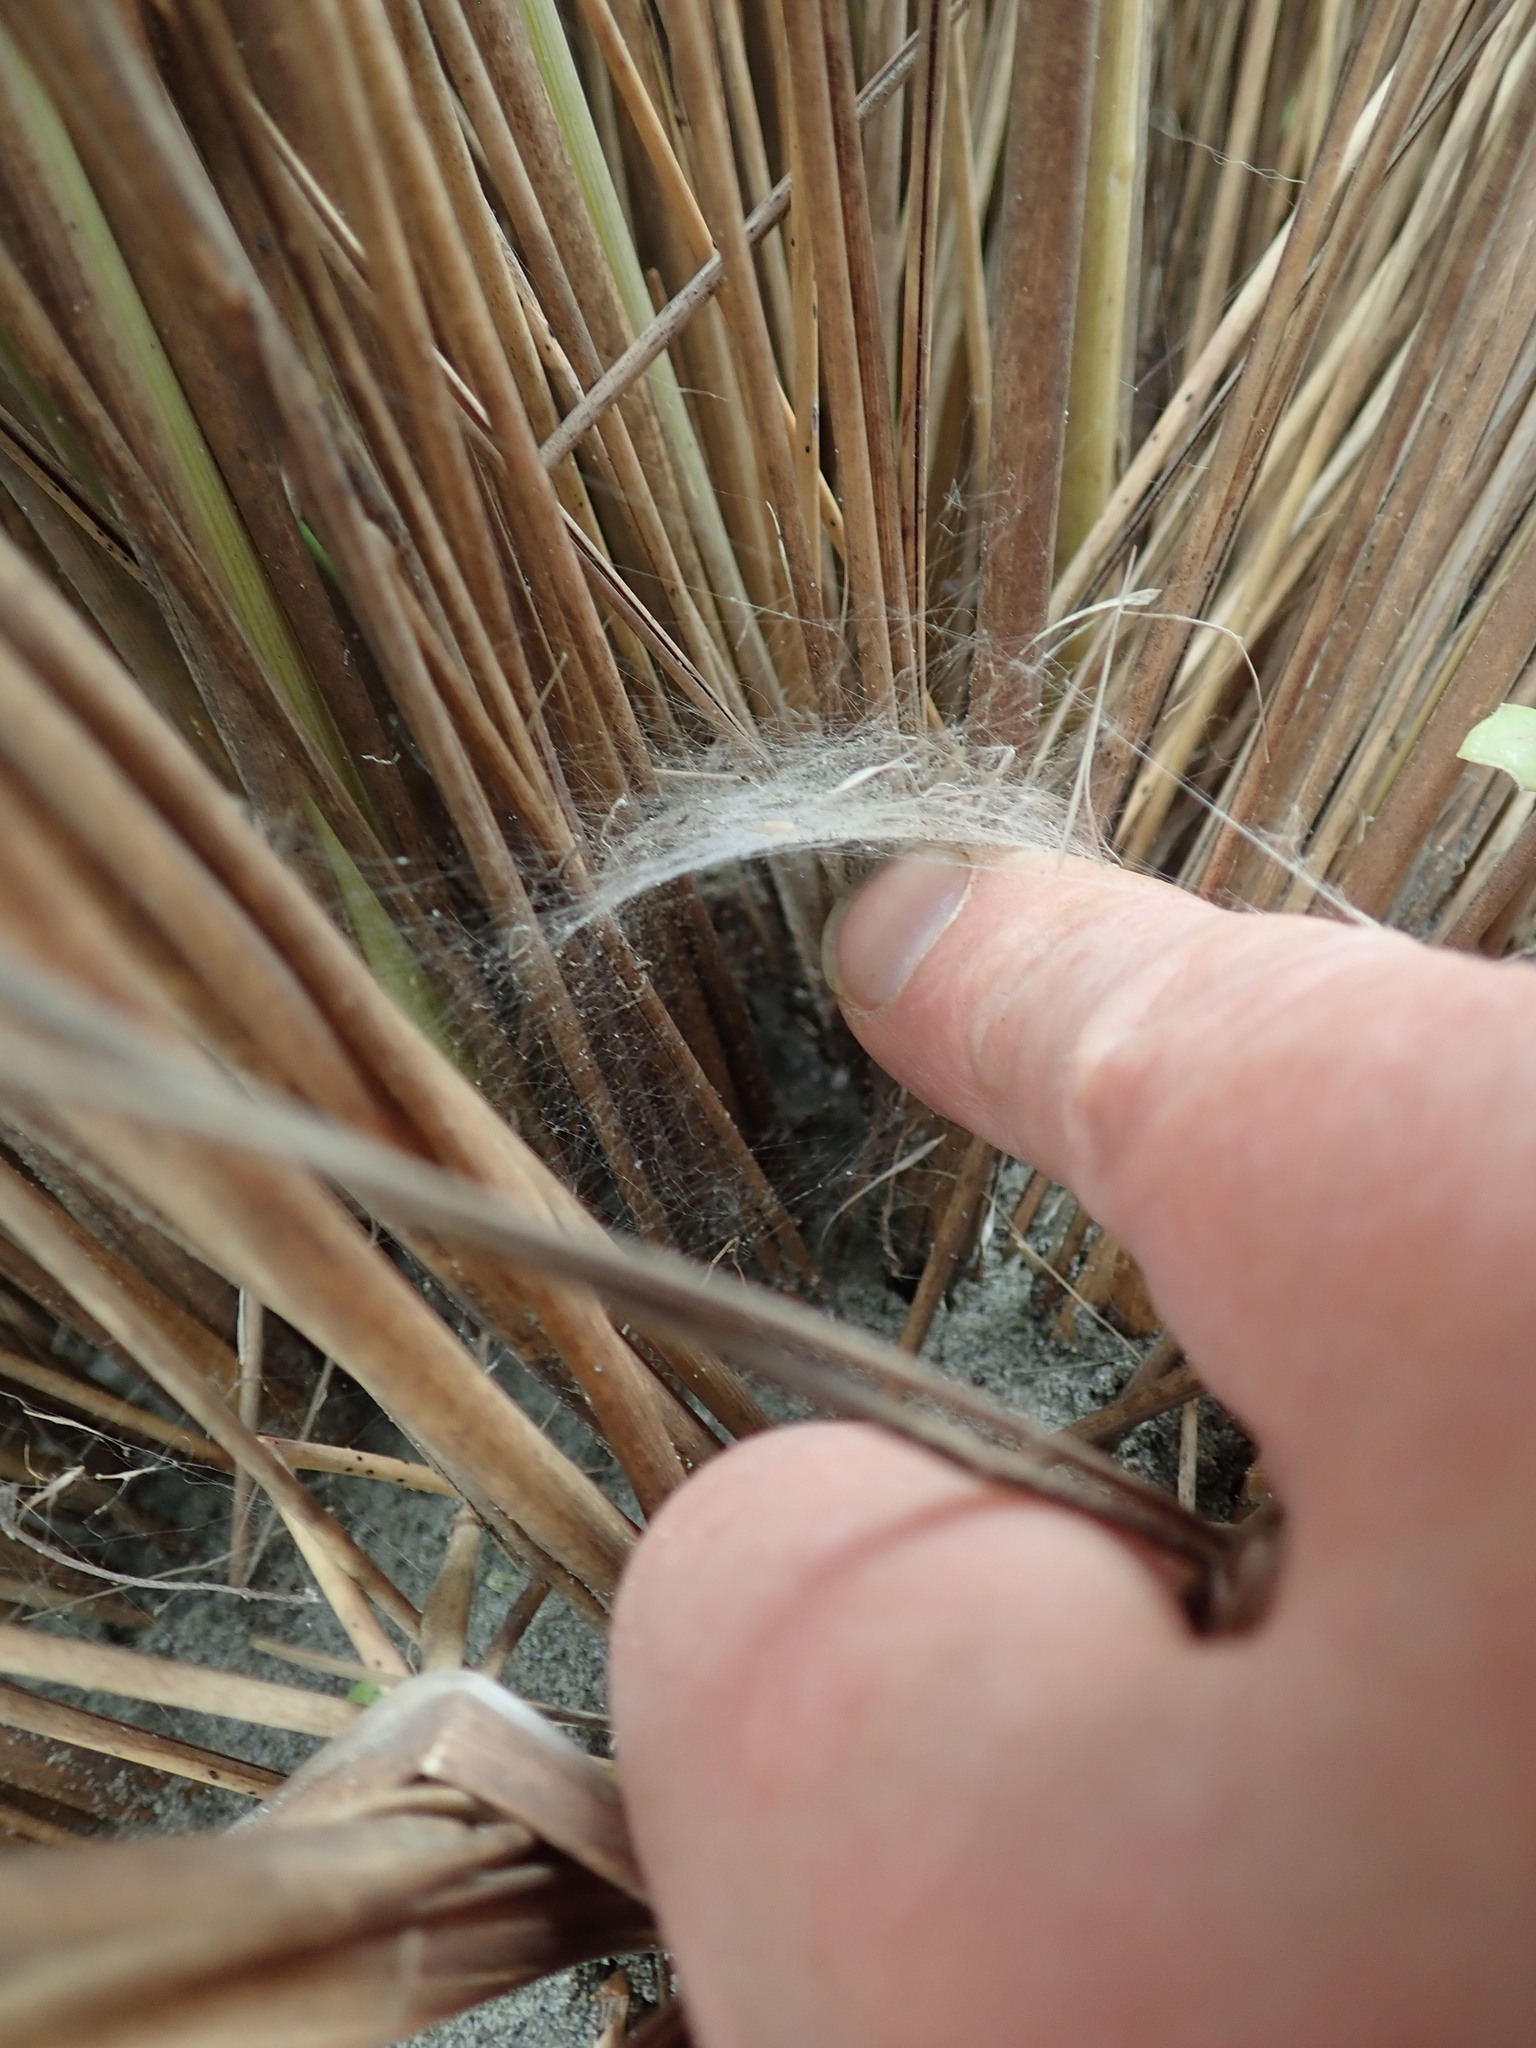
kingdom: Animalia
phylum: Arthropoda
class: Arachnida
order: Araneae
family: Theridiidae
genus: Latrodectus
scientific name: Latrodectus katipo
